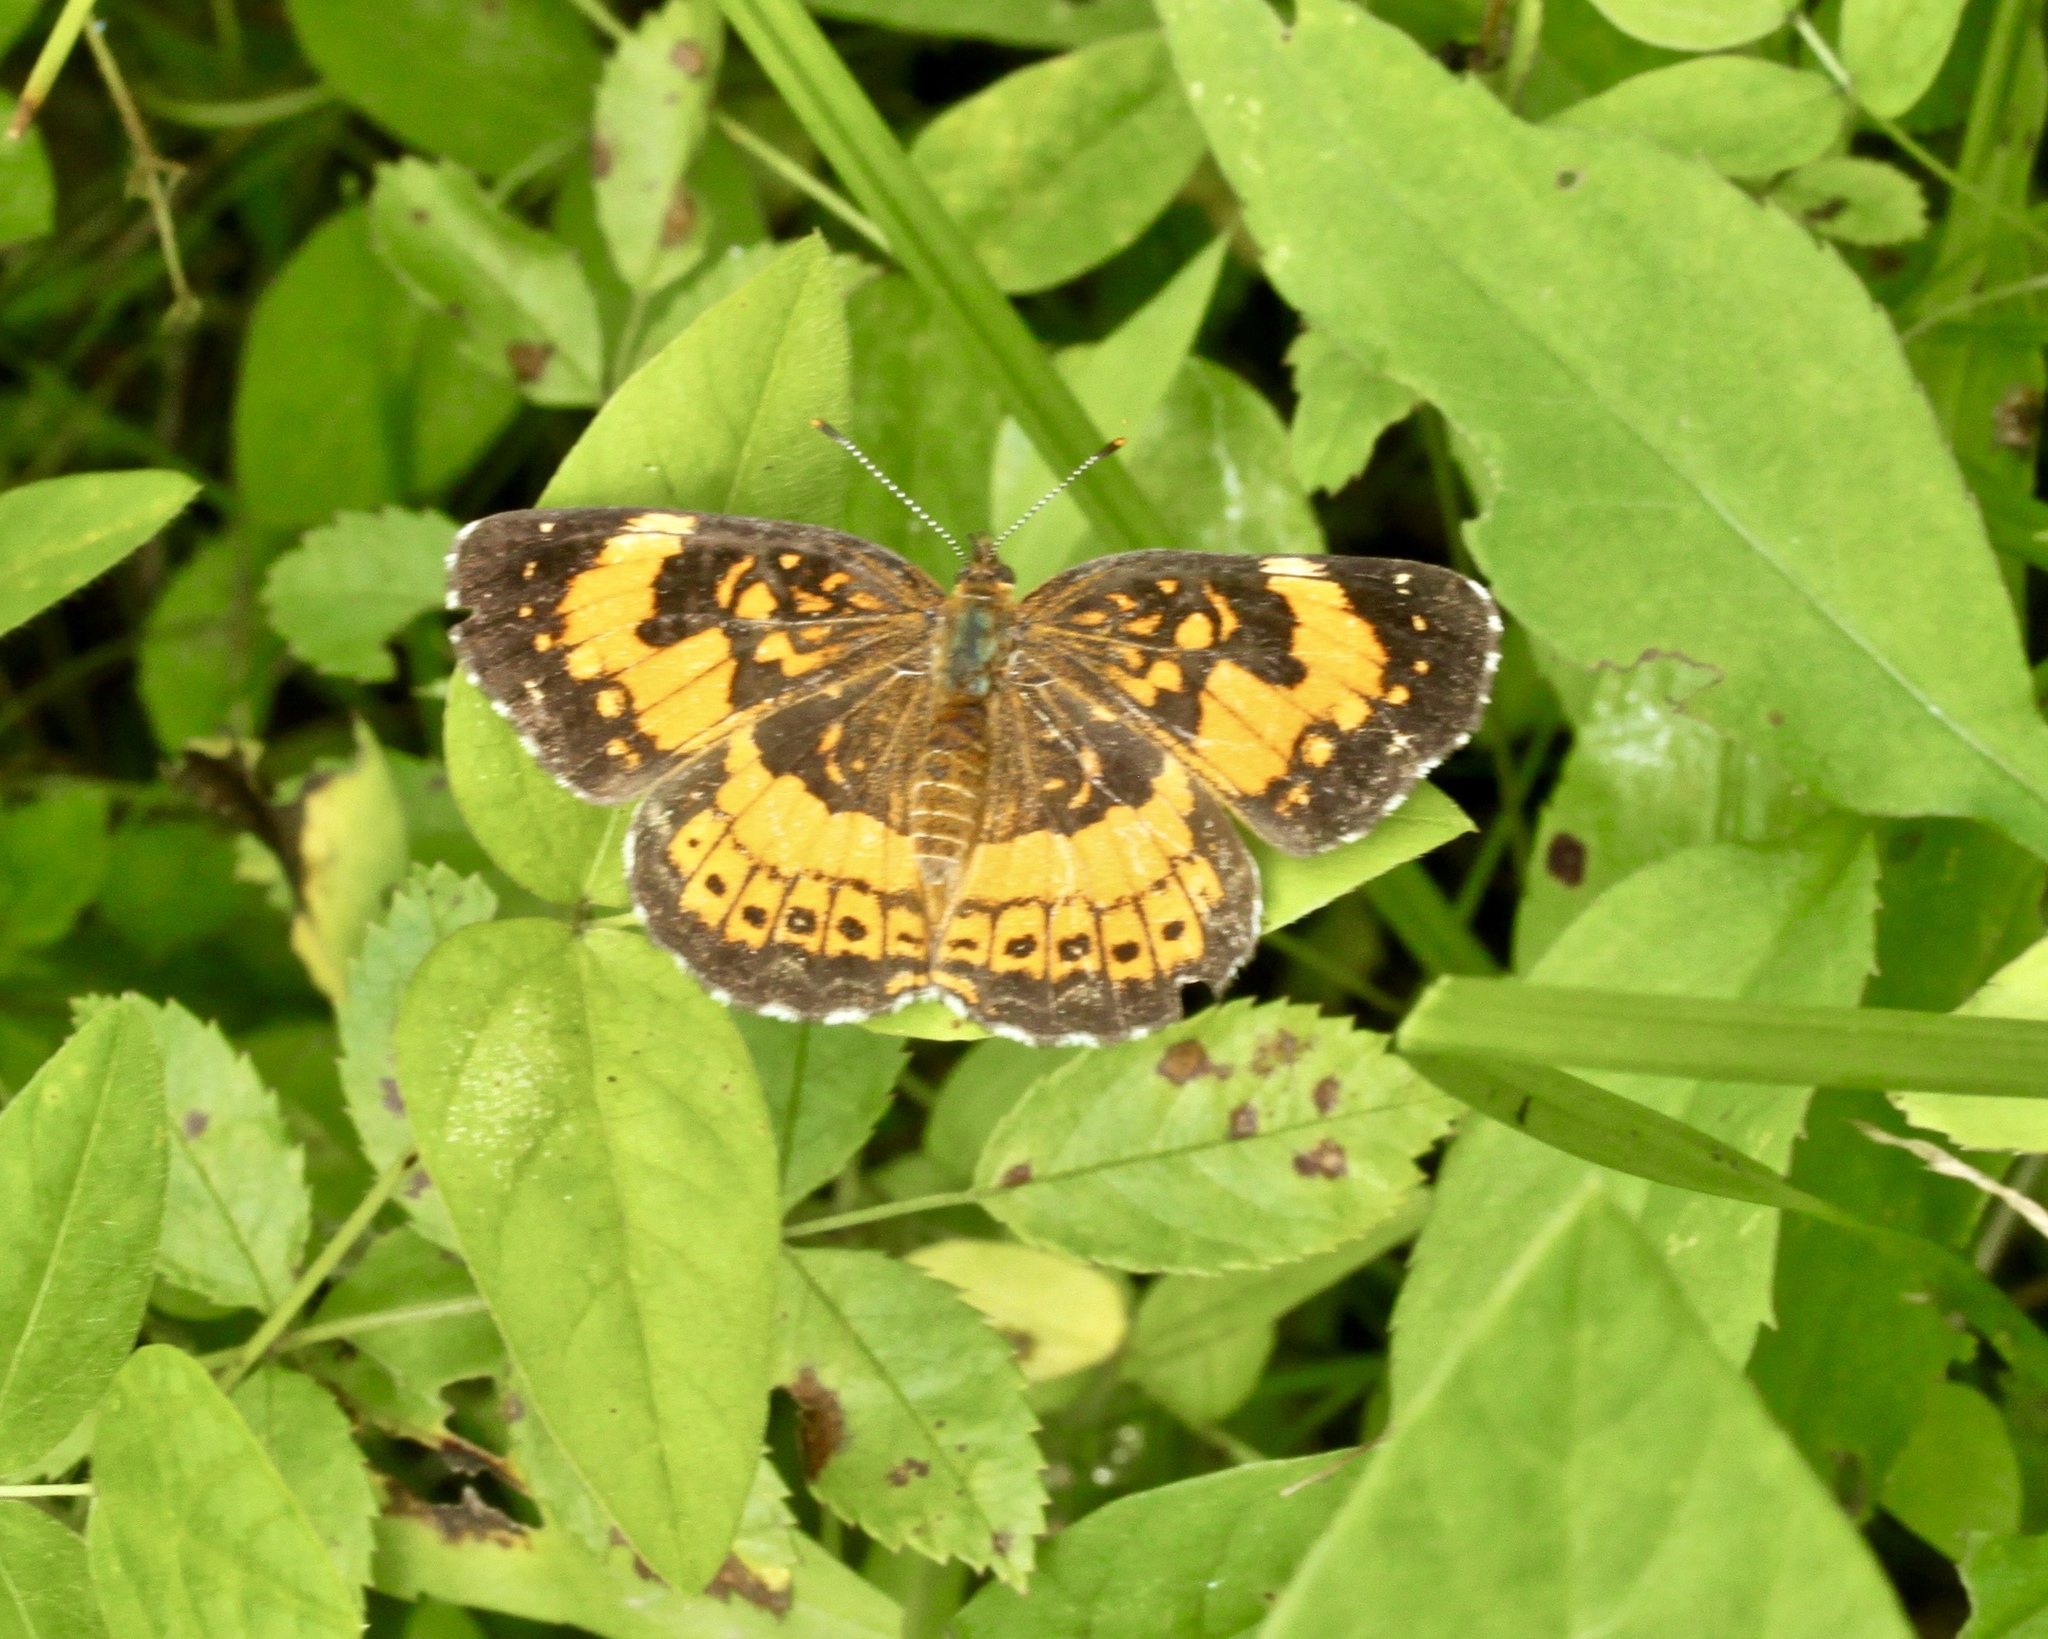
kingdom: Animalia
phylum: Arthropoda
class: Insecta
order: Lepidoptera
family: Nymphalidae
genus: Chlosyne
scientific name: Chlosyne nycteis
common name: Silvery checkerspot
